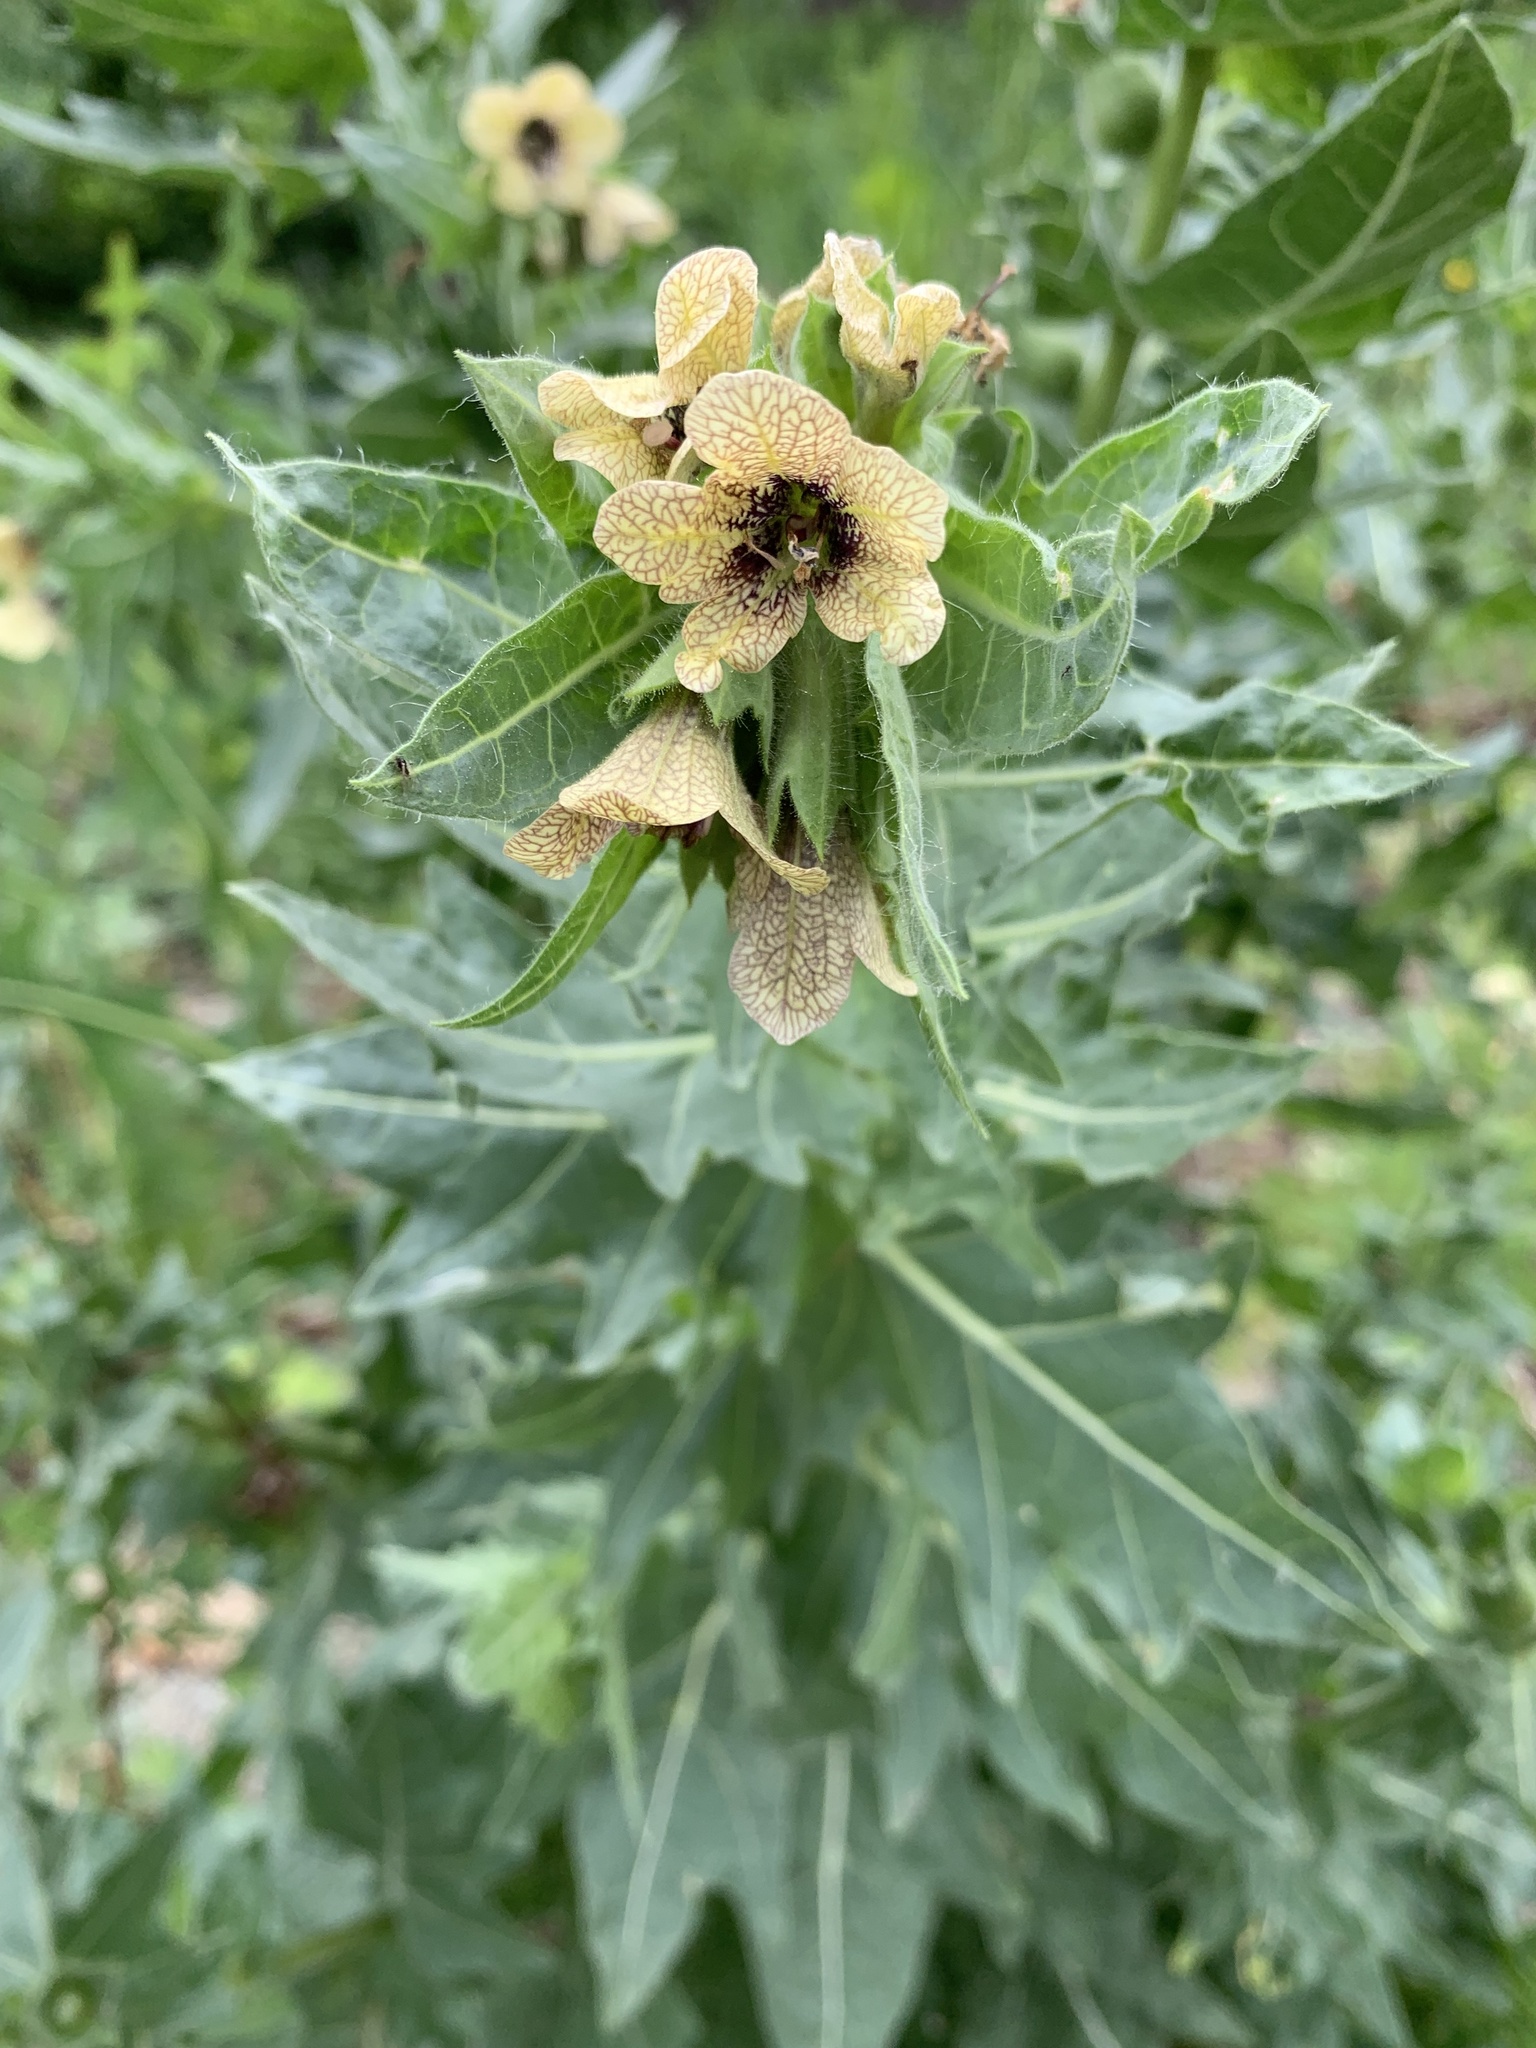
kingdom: Plantae
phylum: Tracheophyta
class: Magnoliopsida
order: Solanales
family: Solanaceae
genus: Hyoscyamus
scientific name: Hyoscyamus niger
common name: Henbane
